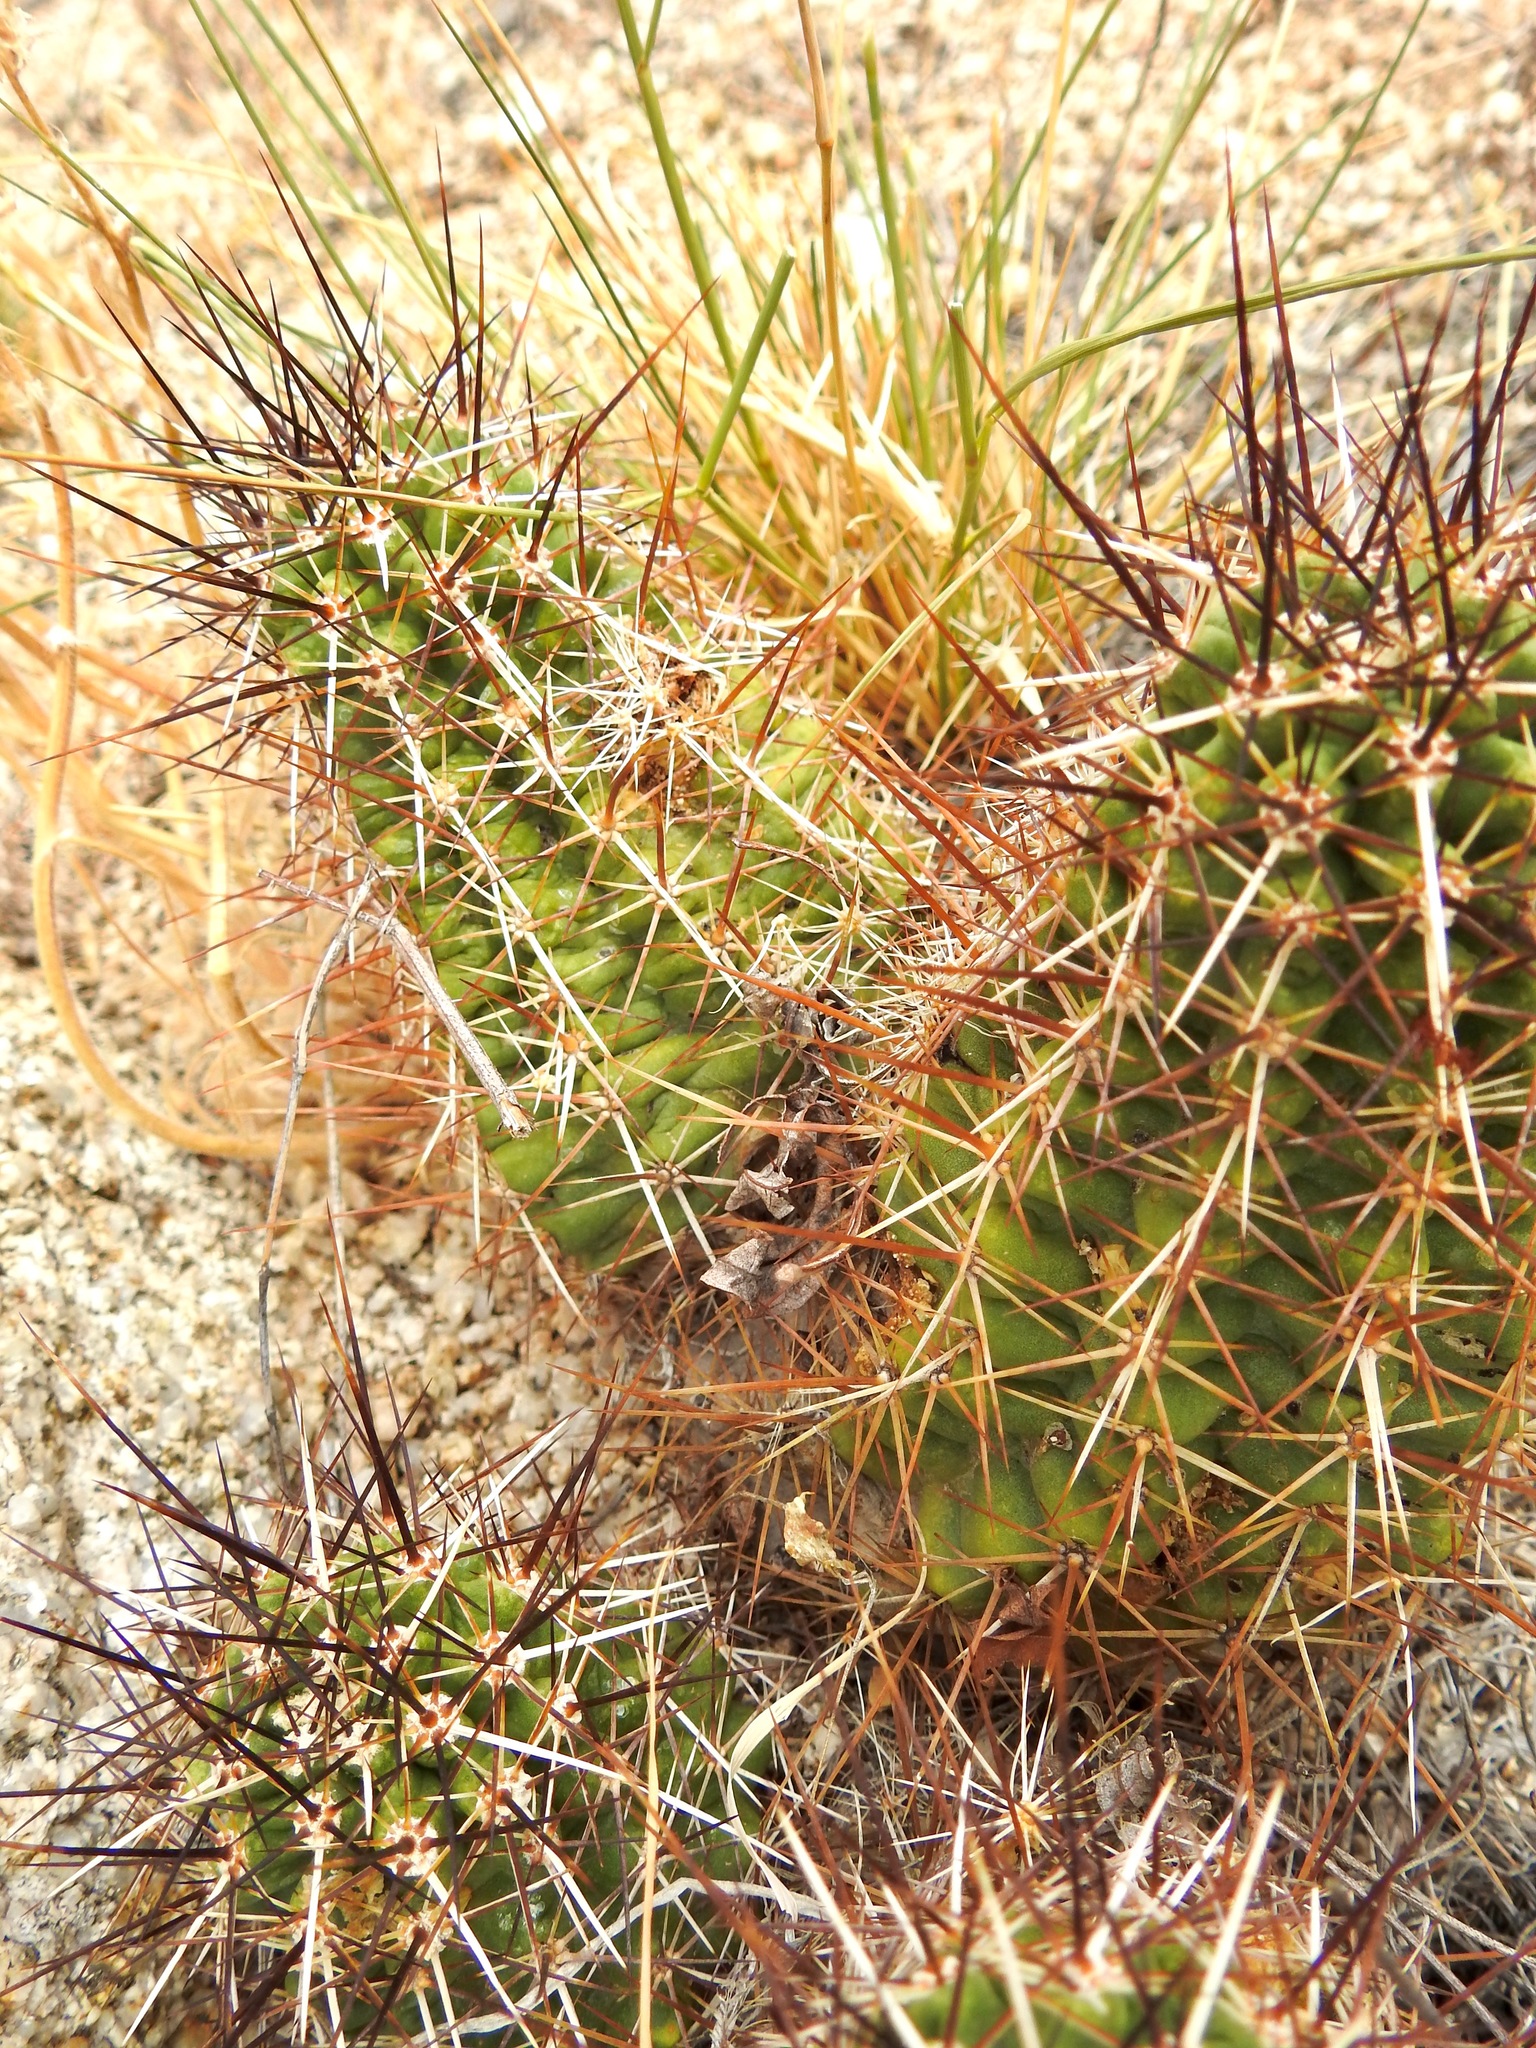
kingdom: Plantae
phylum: Tracheophyta
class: Magnoliopsida
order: Caryophyllales
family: Cactaceae
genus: Echinocereus
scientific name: Echinocereus fendleri
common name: Fendler's hedgehog cactus
